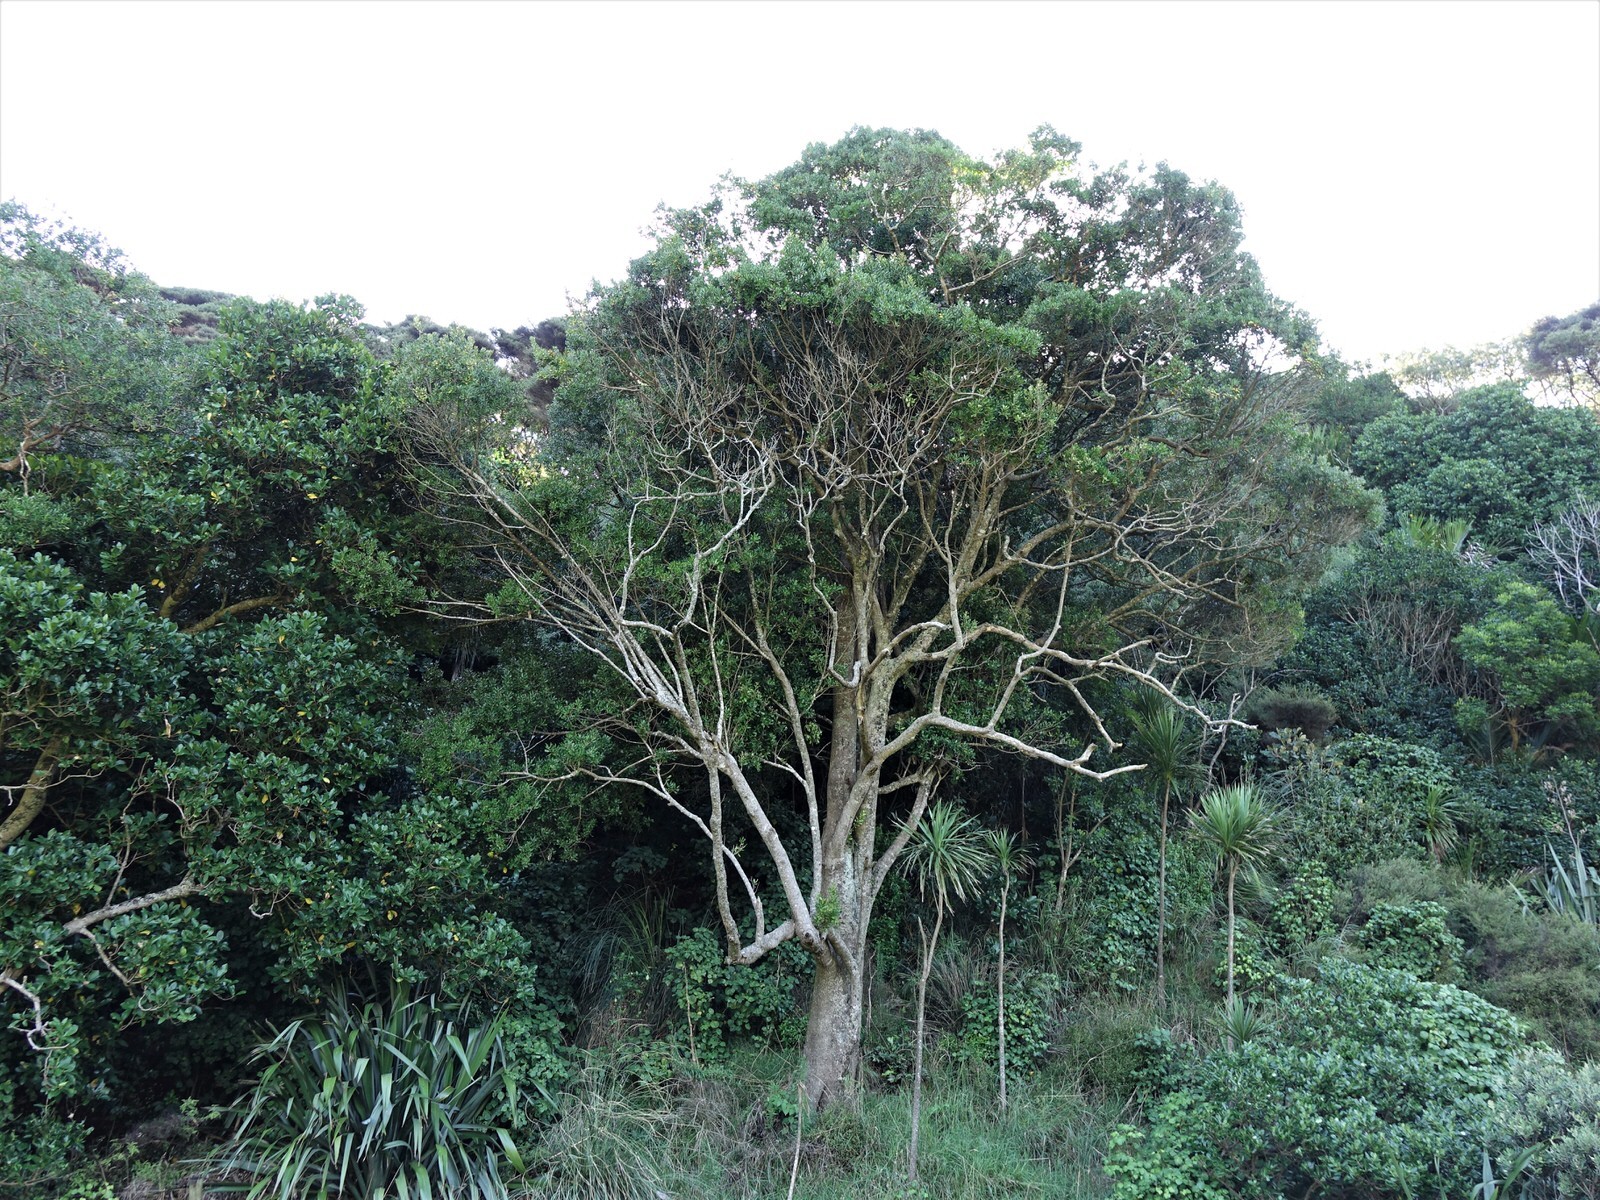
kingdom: Plantae
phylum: Tracheophyta
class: Magnoliopsida
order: Ericales
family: Sapotaceae
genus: Planchonella
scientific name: Planchonella costata
